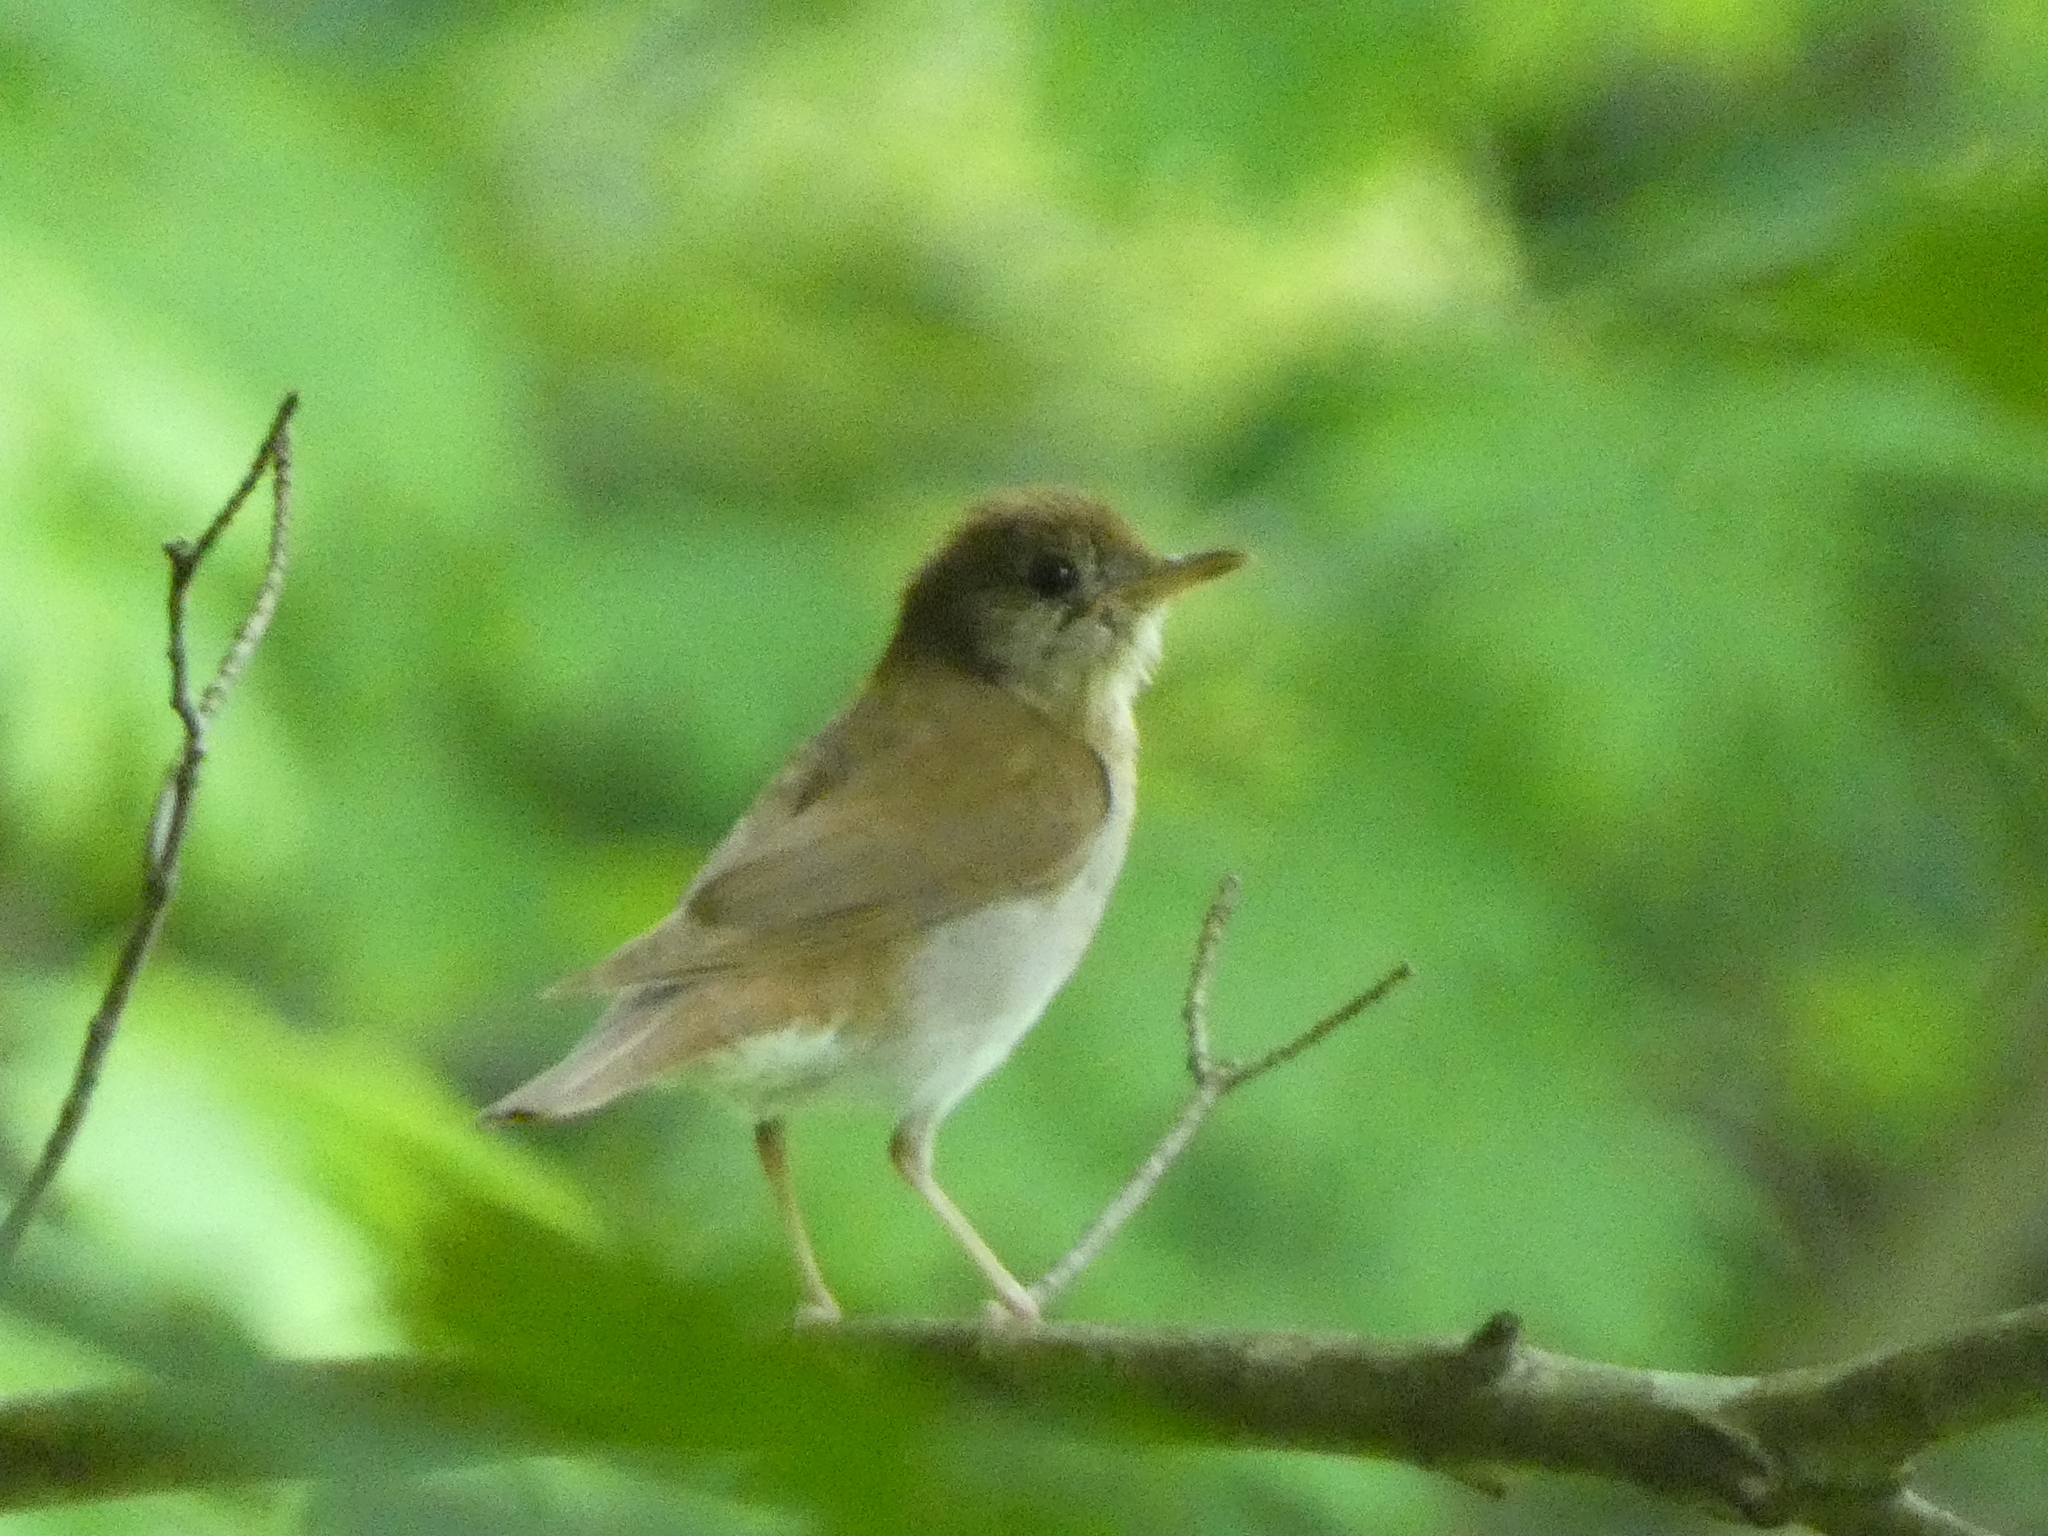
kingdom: Animalia
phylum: Chordata
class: Aves
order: Passeriformes
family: Turdidae
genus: Catharus
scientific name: Catharus fuscescens
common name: Veery
